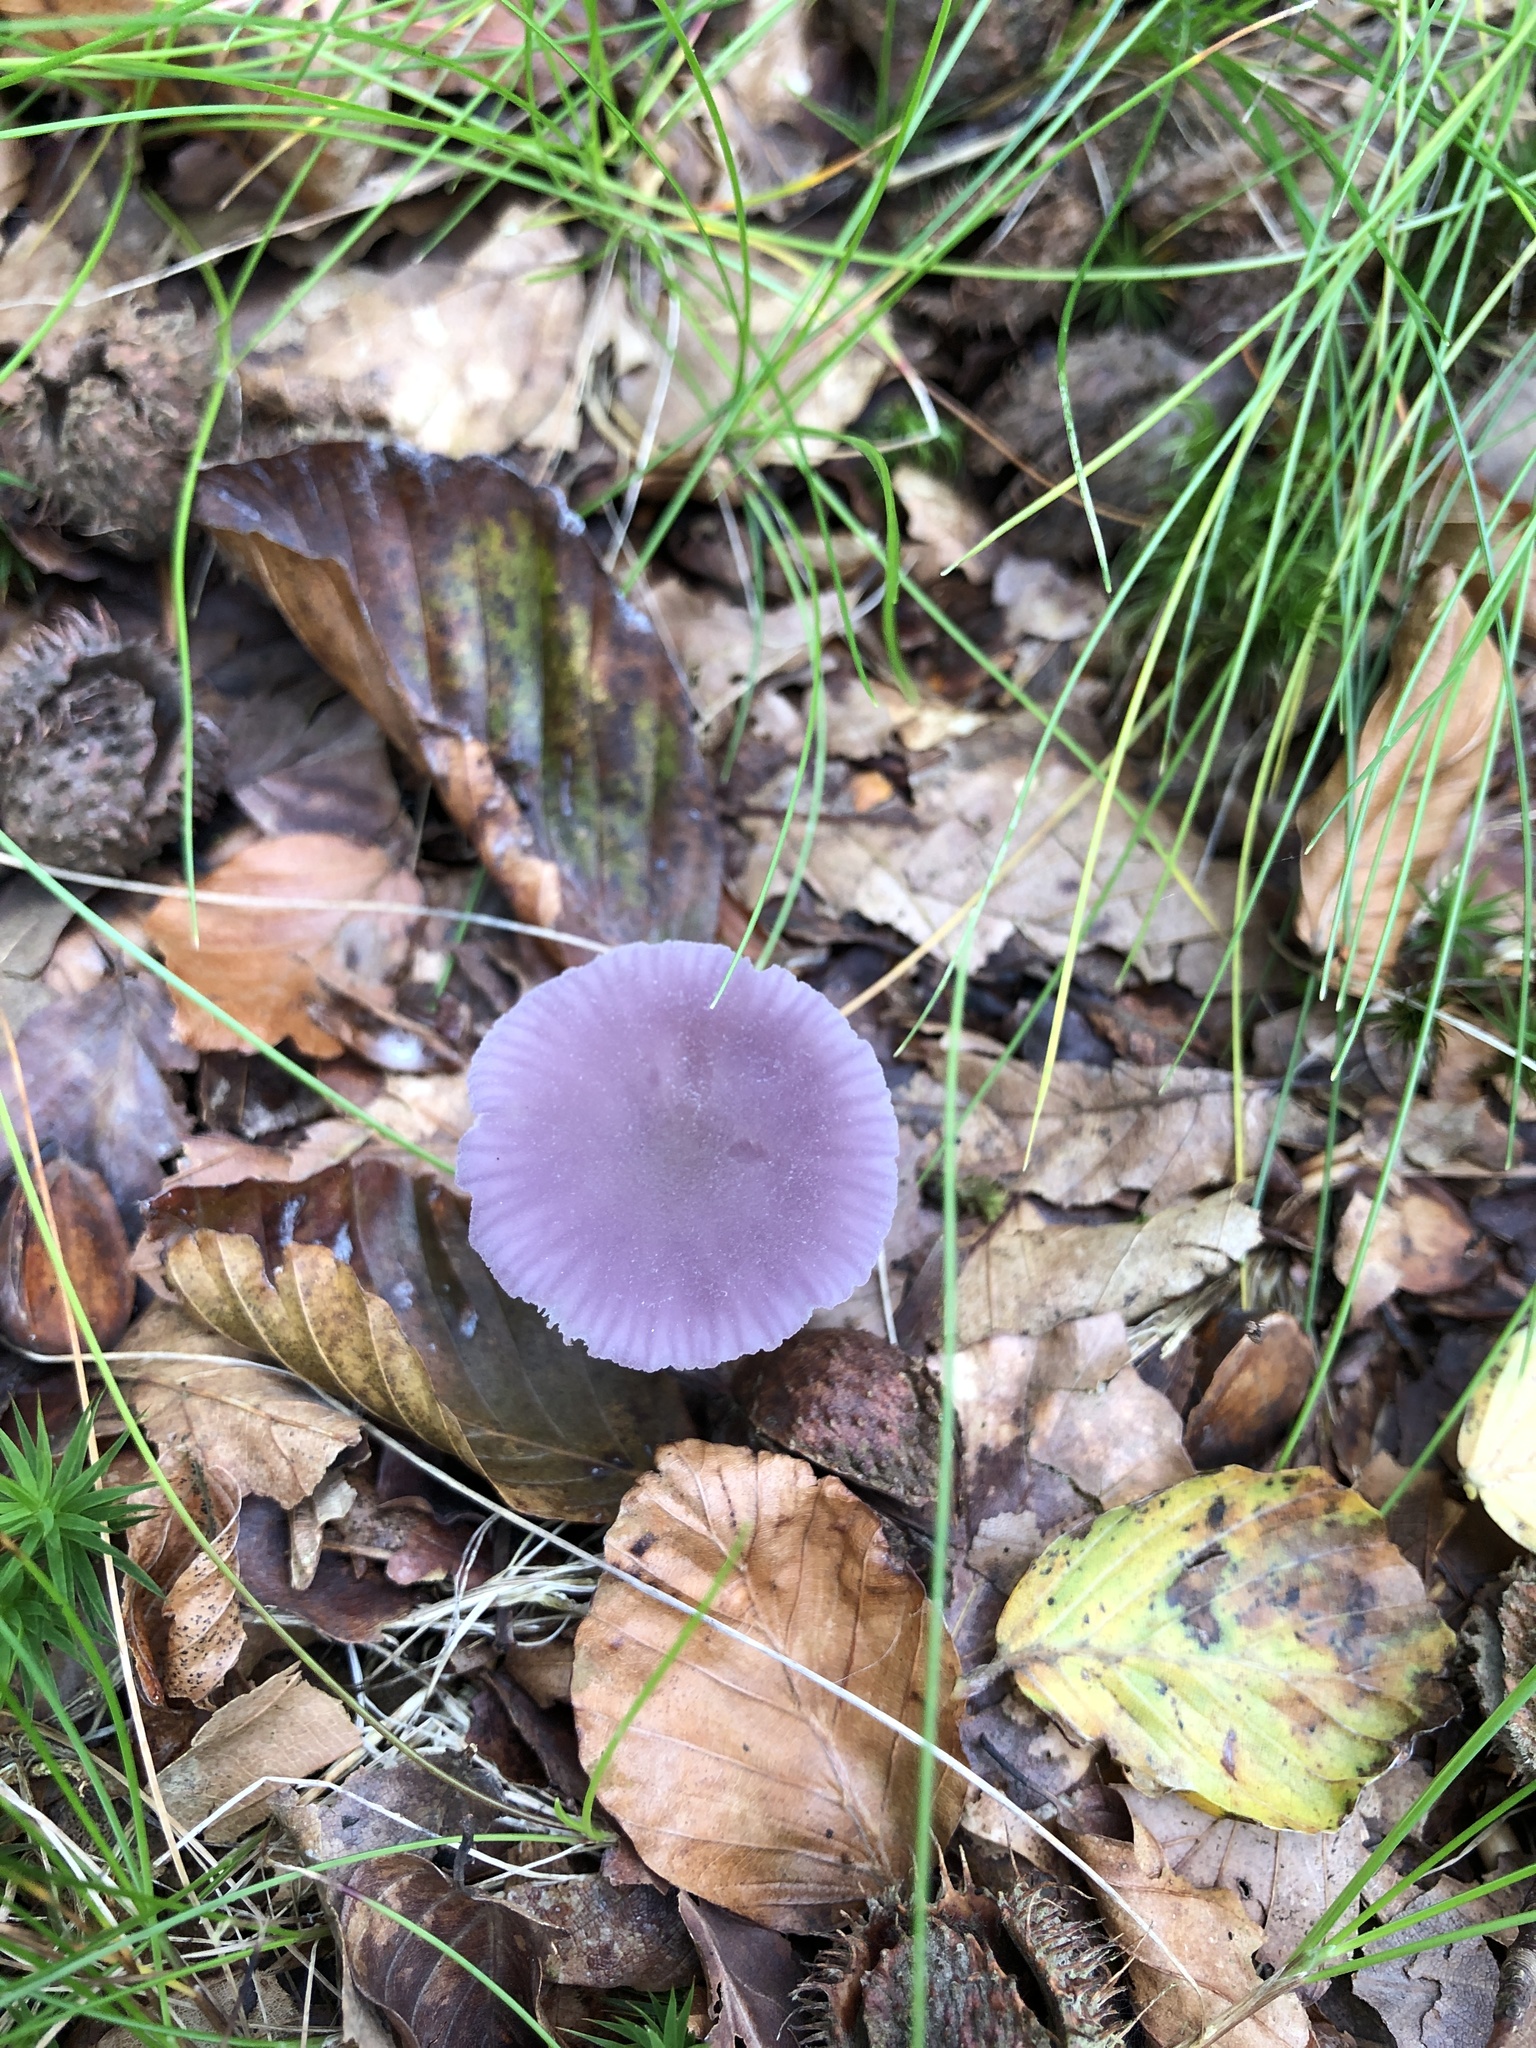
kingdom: Fungi
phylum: Basidiomycota
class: Agaricomycetes
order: Agaricales
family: Hydnangiaceae
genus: Laccaria
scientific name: Laccaria amethystina
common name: Amethyst deceiver
